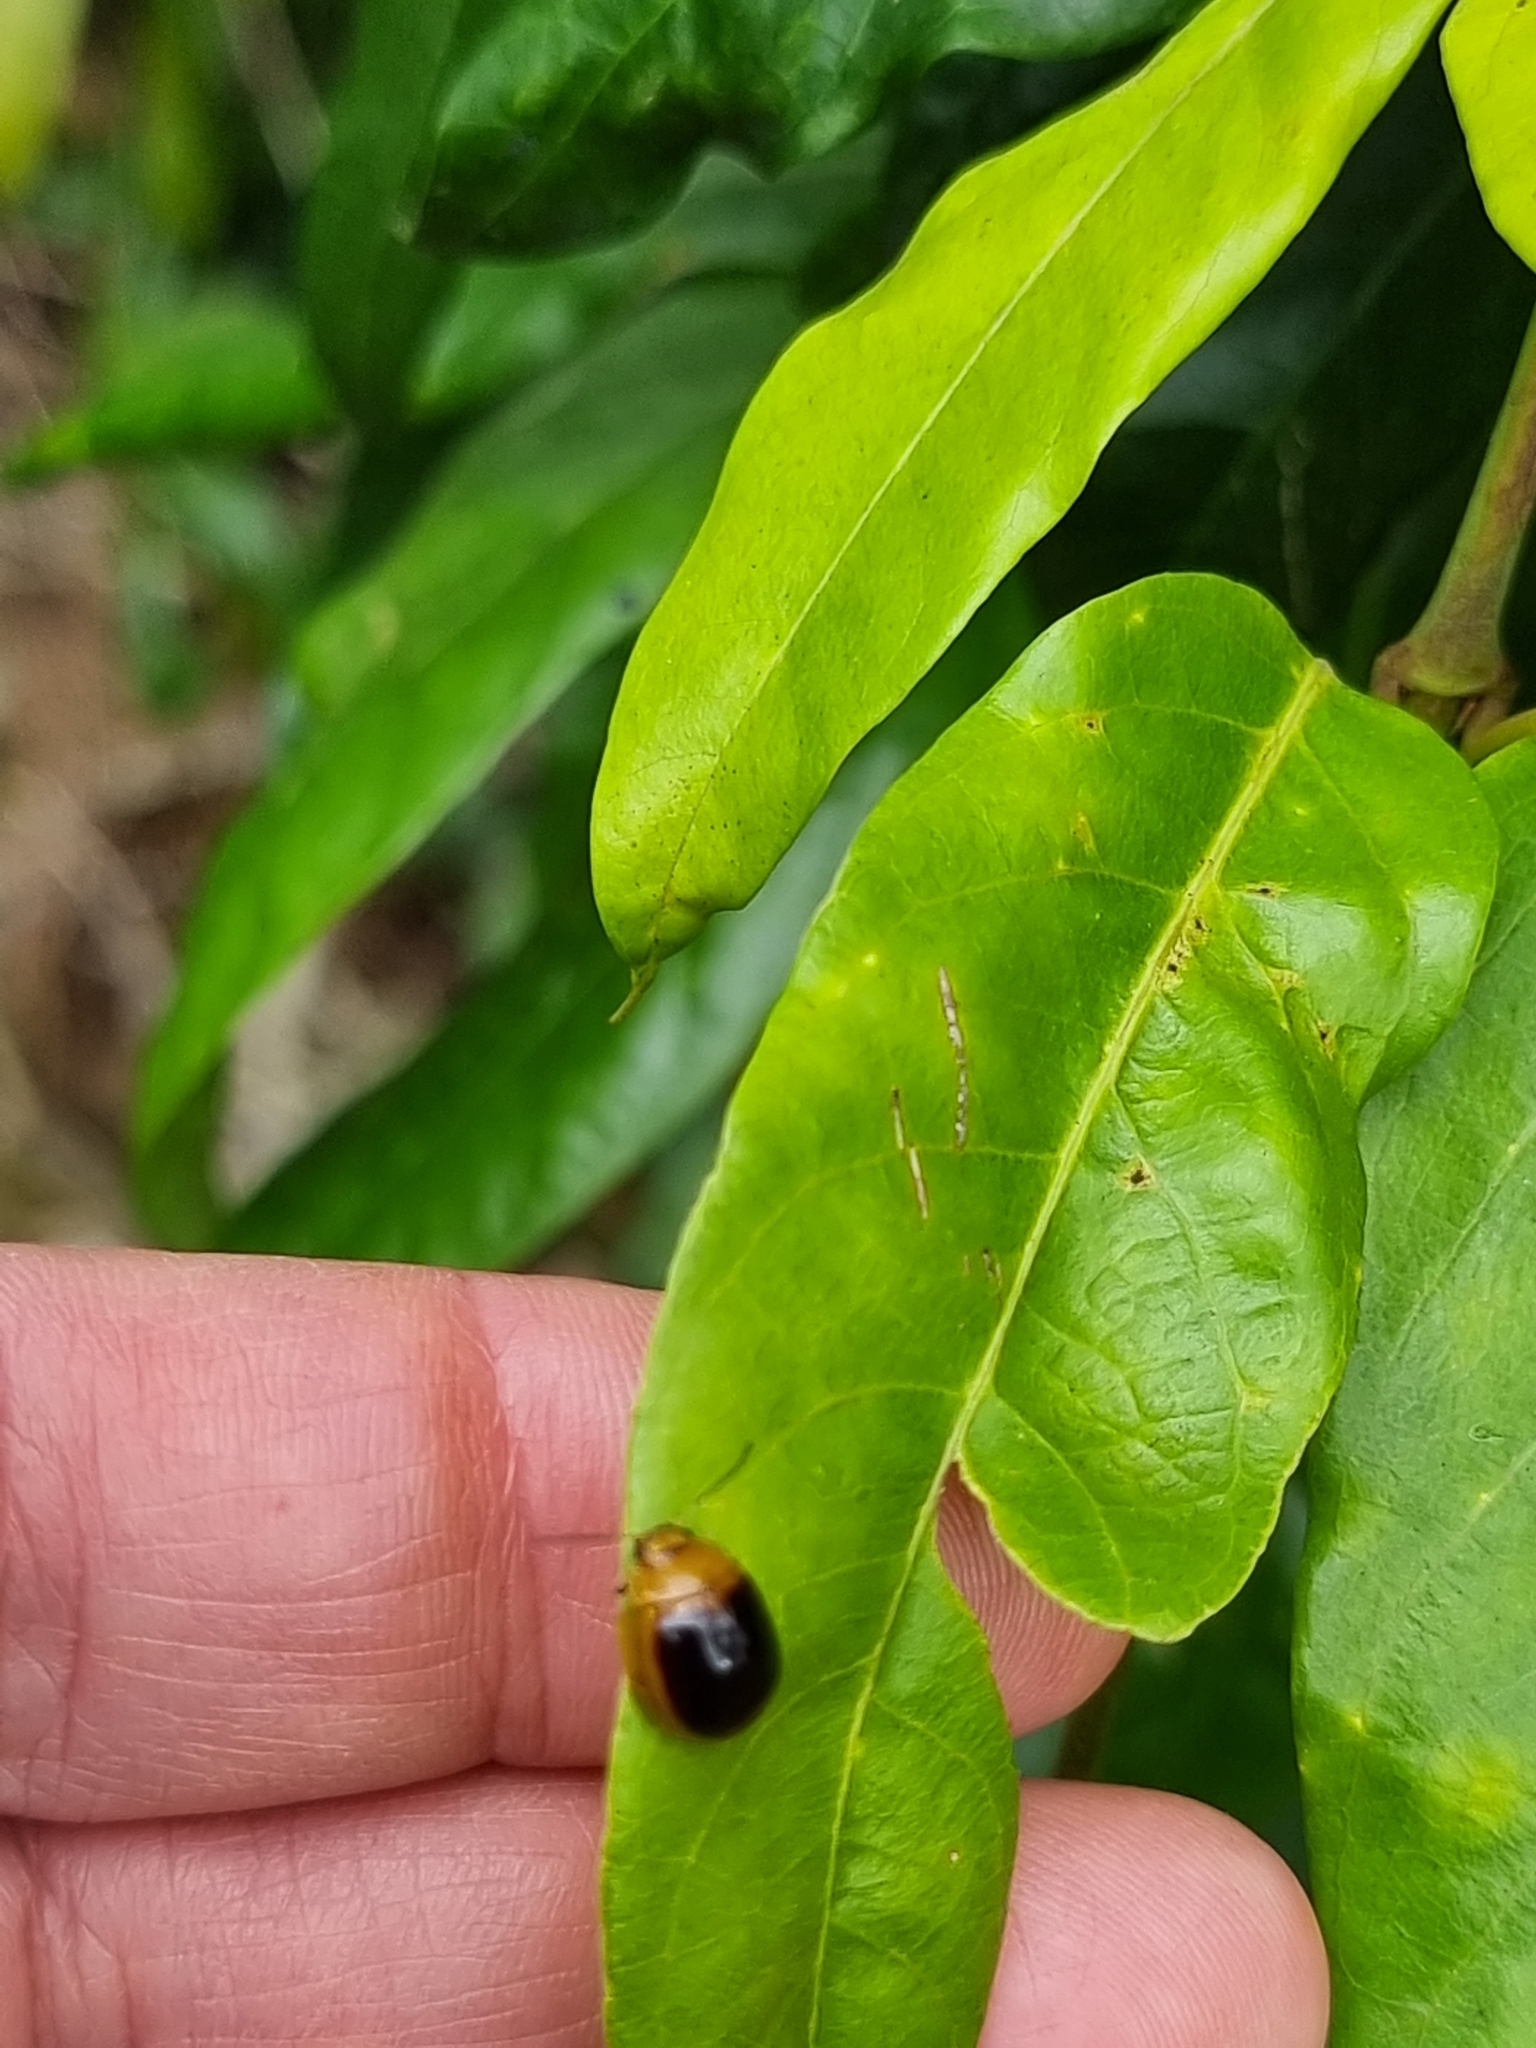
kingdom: Animalia
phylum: Arthropoda
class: Insecta
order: Coleoptera
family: Chrysomelidae
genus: Paropsisterna
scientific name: Paropsisterna cloelia
